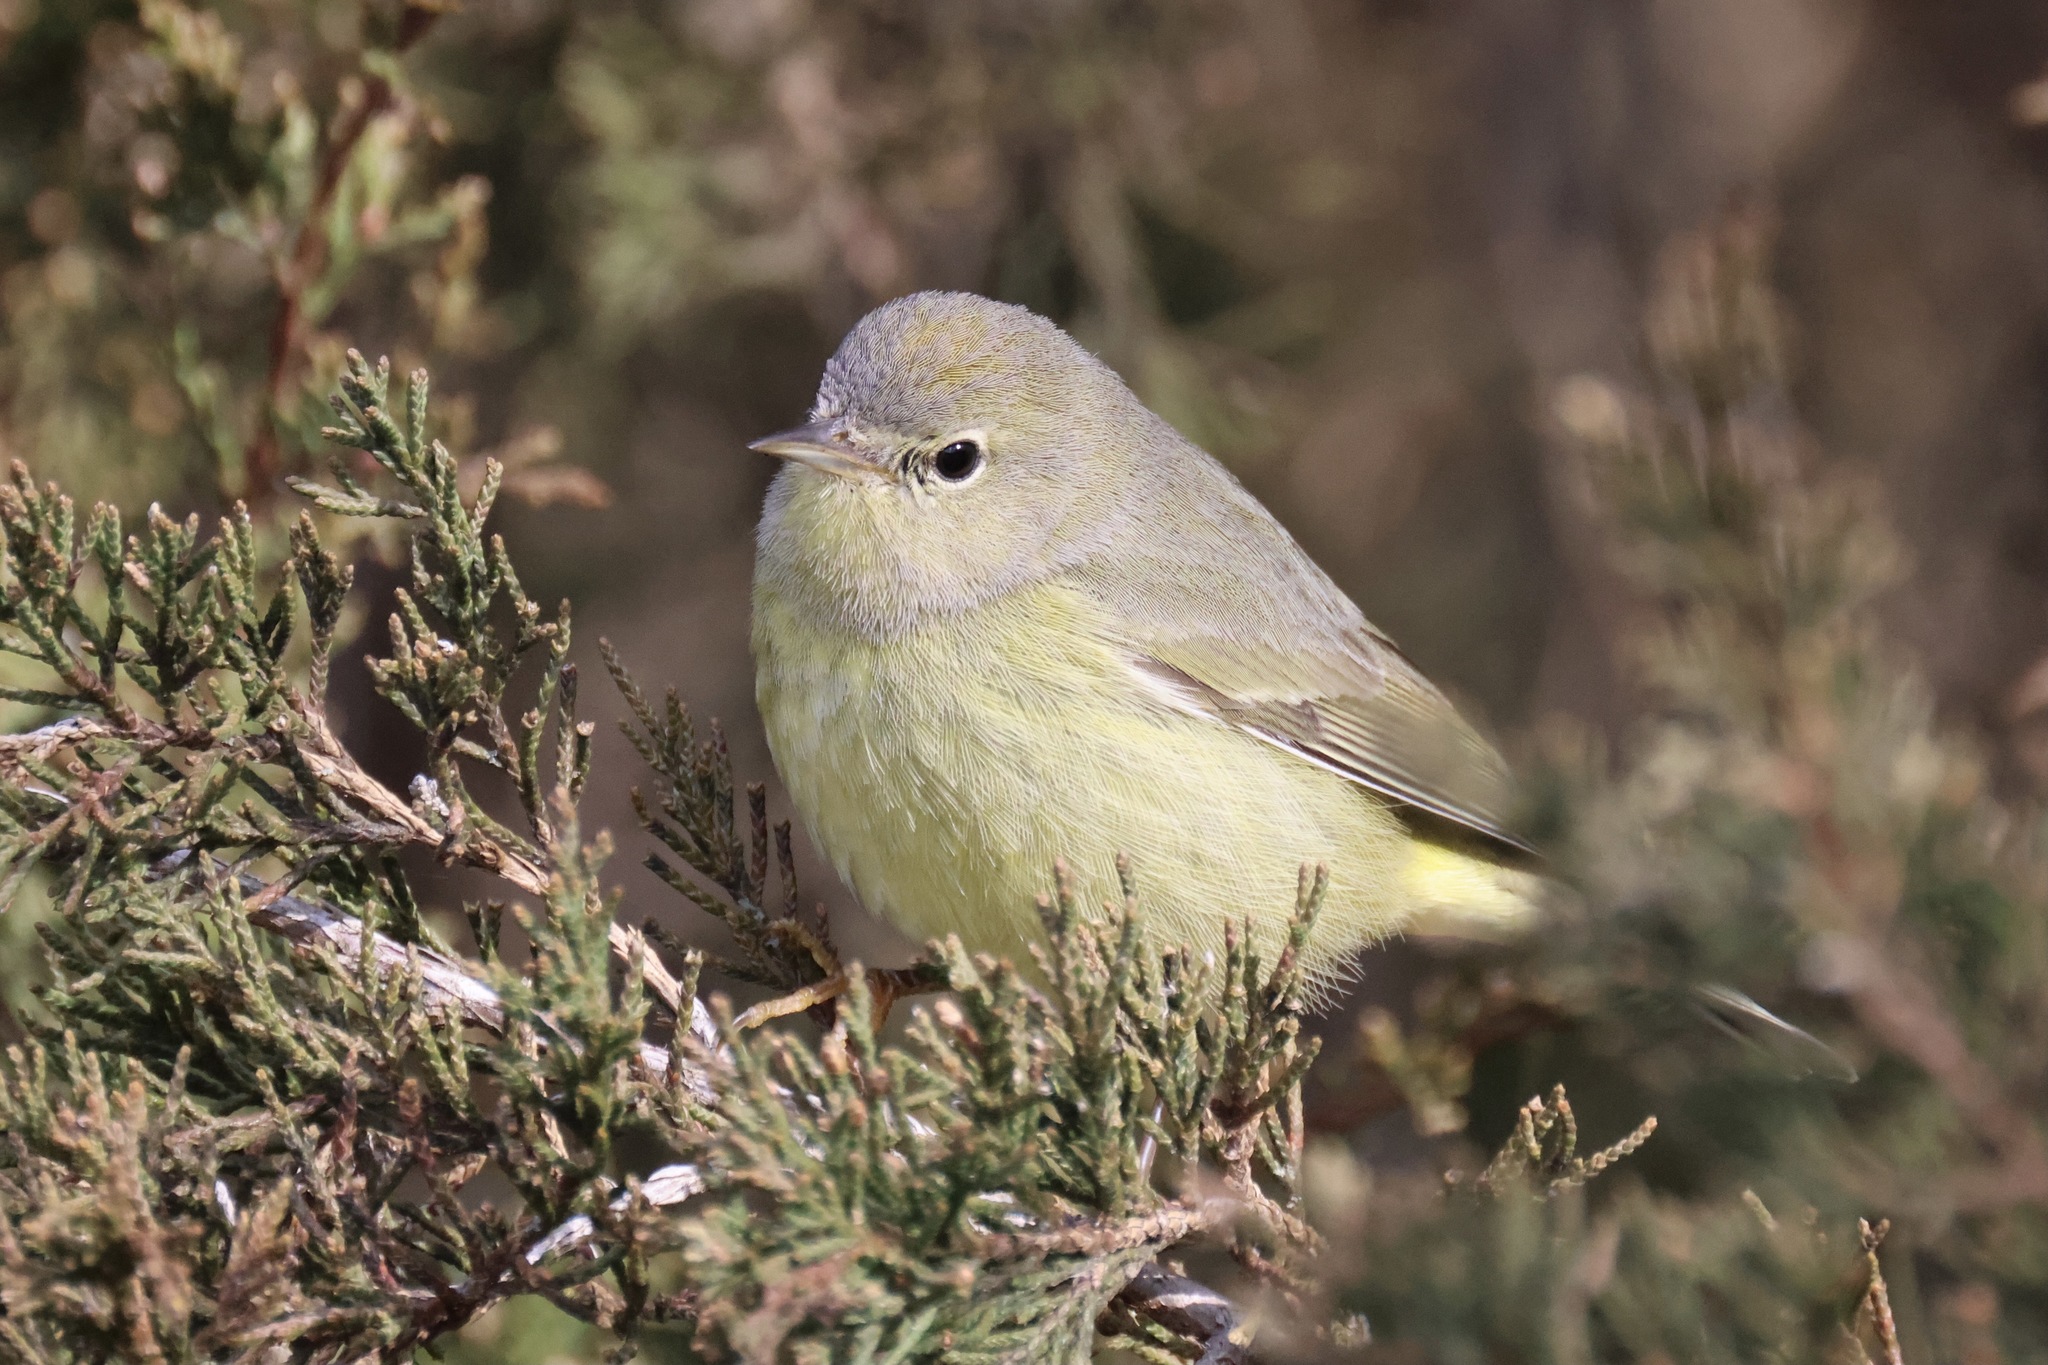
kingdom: Animalia
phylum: Chordata
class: Aves
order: Passeriformes
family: Parulidae
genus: Leiothlypis
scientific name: Leiothlypis celata
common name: Orange-crowned warbler
